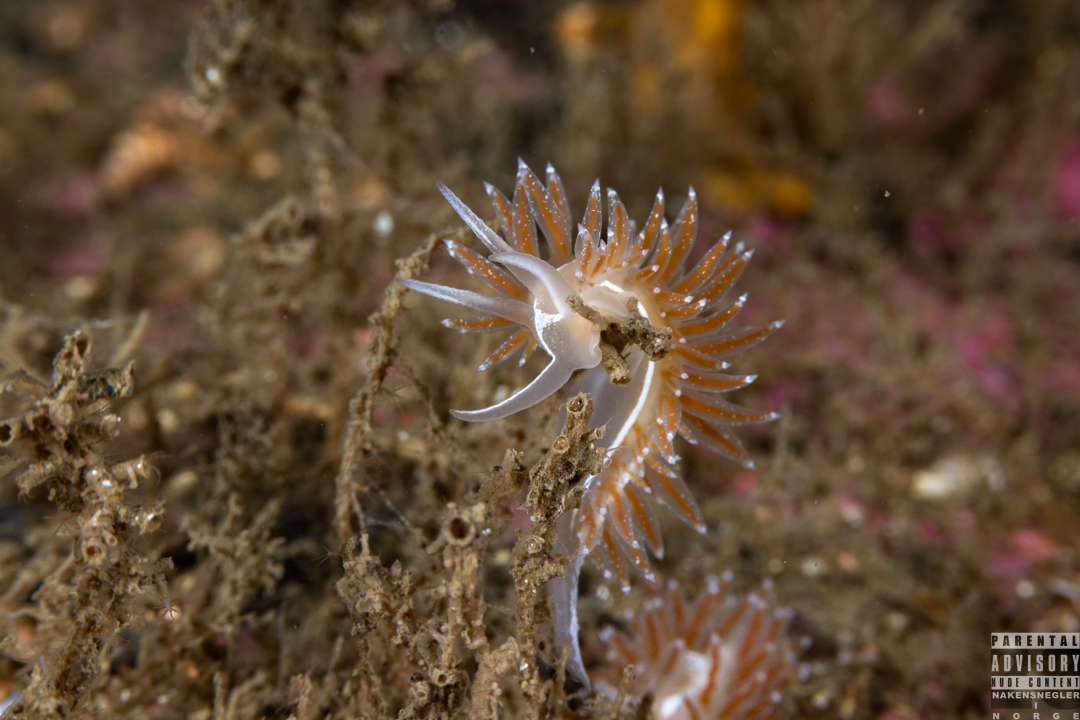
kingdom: Animalia
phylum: Mollusca
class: Gastropoda
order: Nudibranchia
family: Coryphellidae
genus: Coryphella
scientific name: Coryphella monicae
